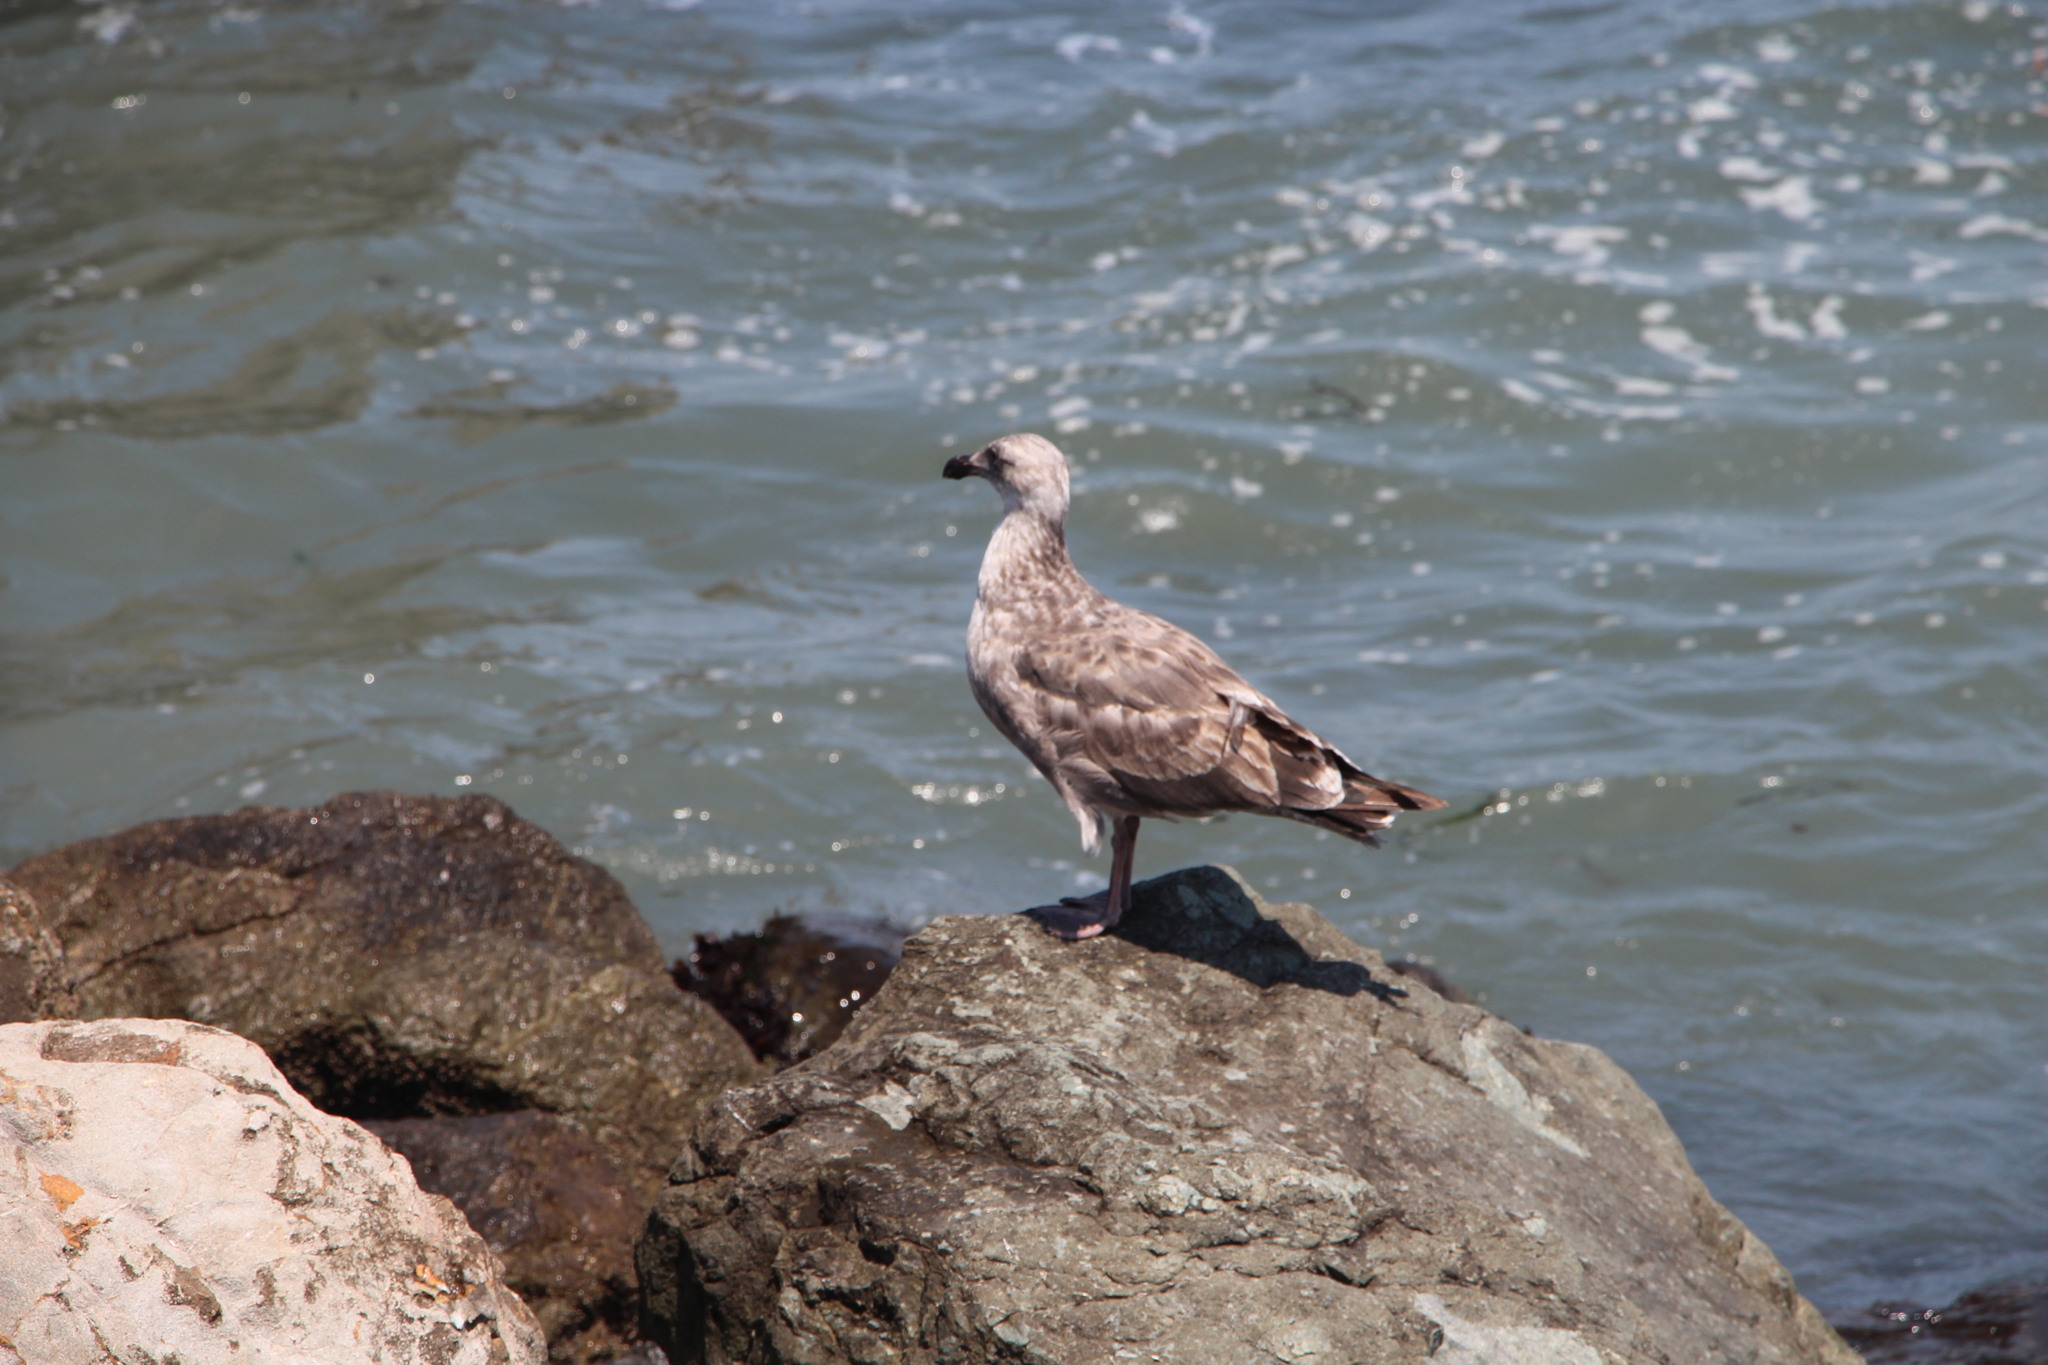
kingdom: Animalia
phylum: Chordata
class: Aves
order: Charadriiformes
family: Laridae
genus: Larus
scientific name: Larus occidentalis
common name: Western gull
